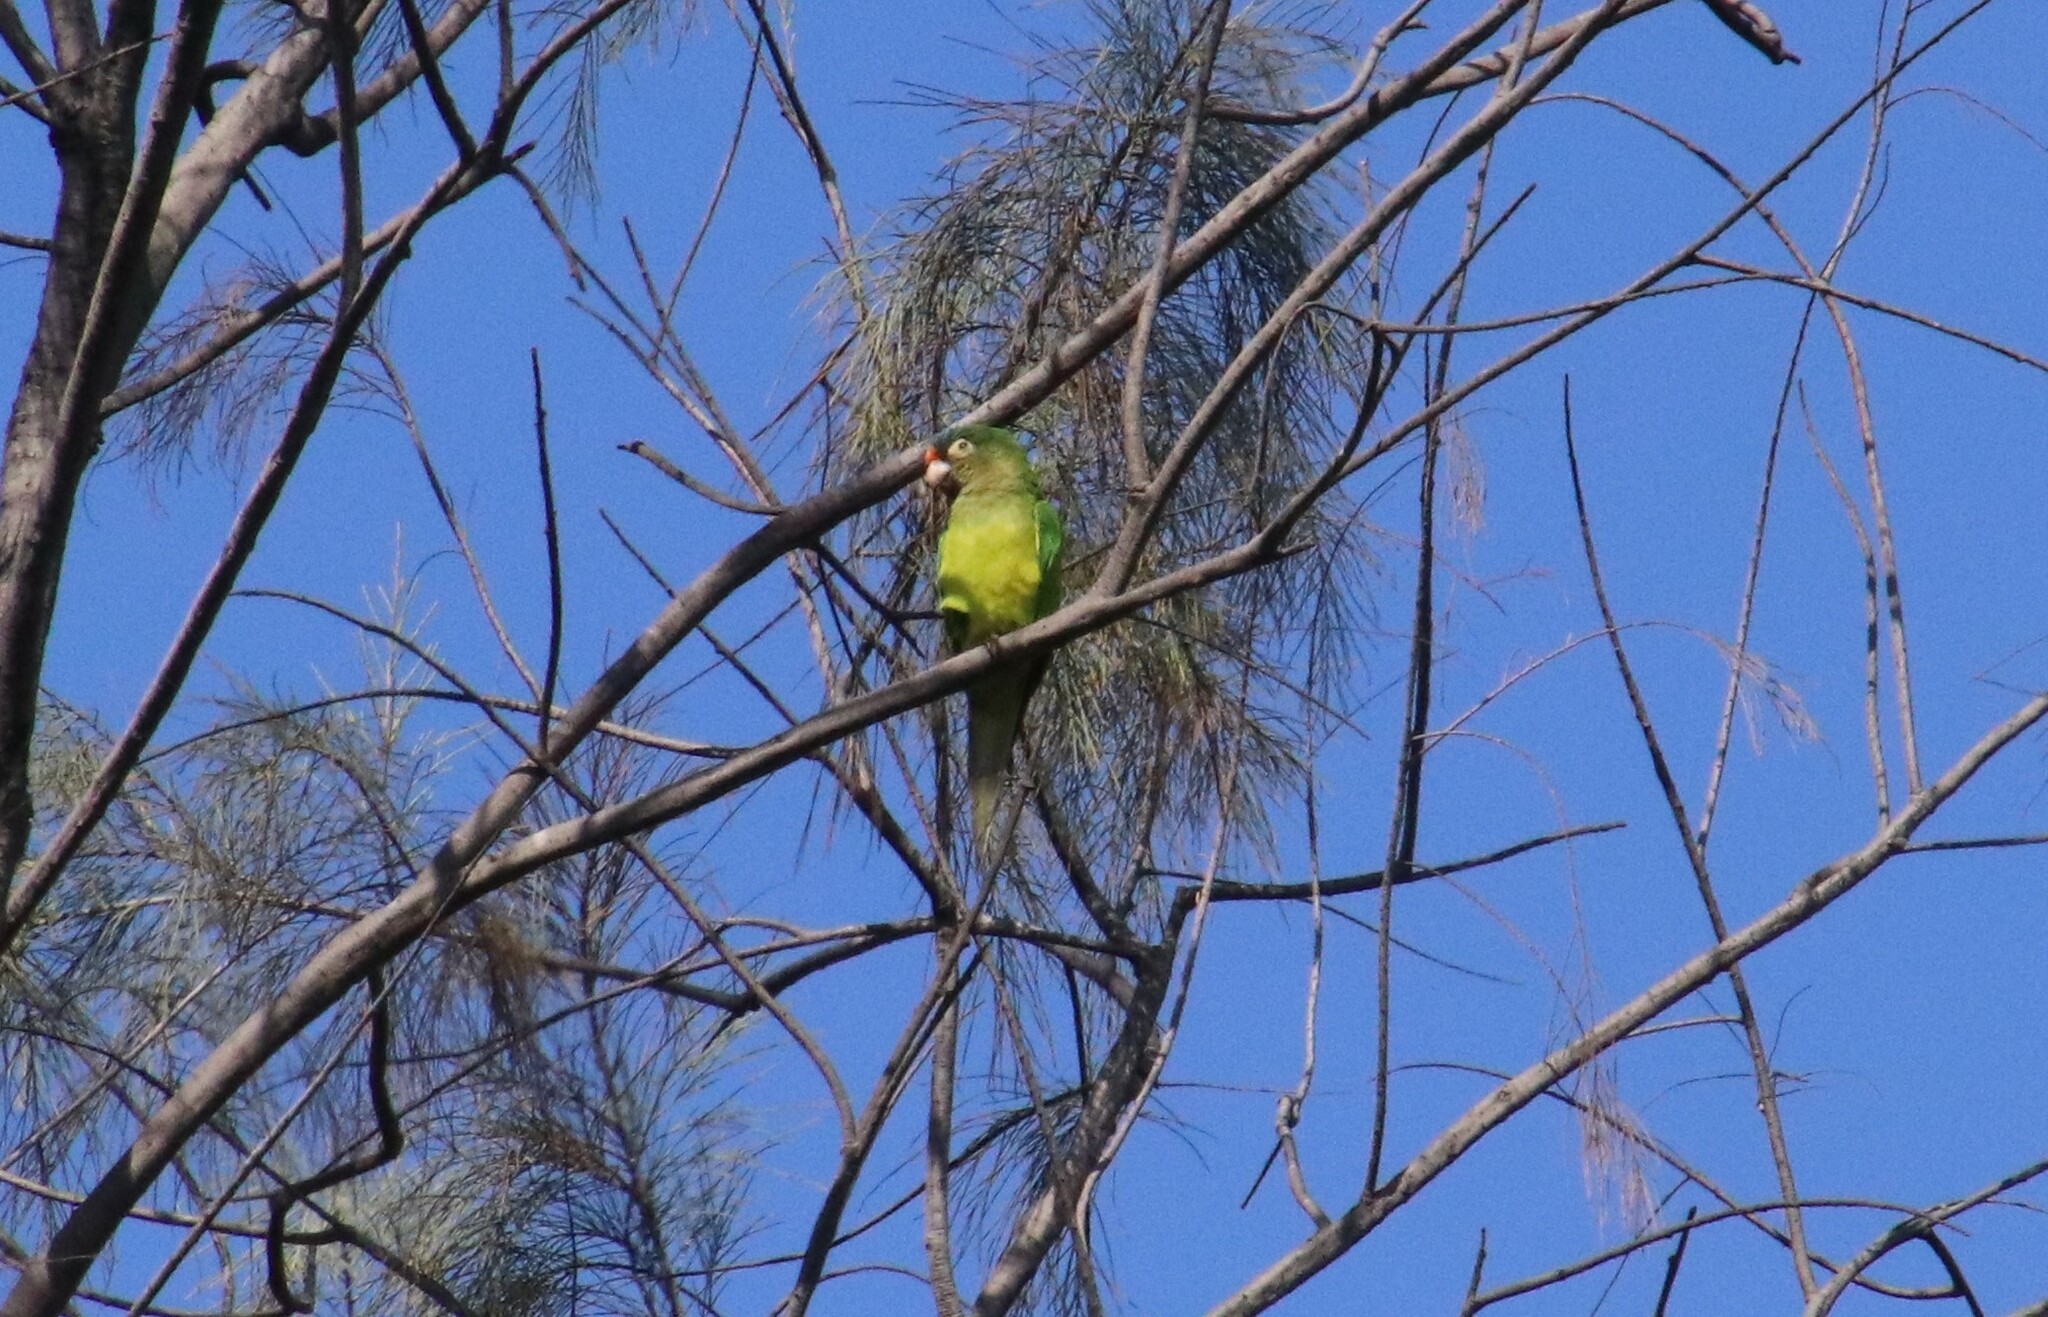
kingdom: Animalia
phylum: Chordata
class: Aves
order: Psittaciformes
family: Psittacidae
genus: Aratinga
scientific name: Aratinga canicularis
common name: Orange-fronted parakeet
